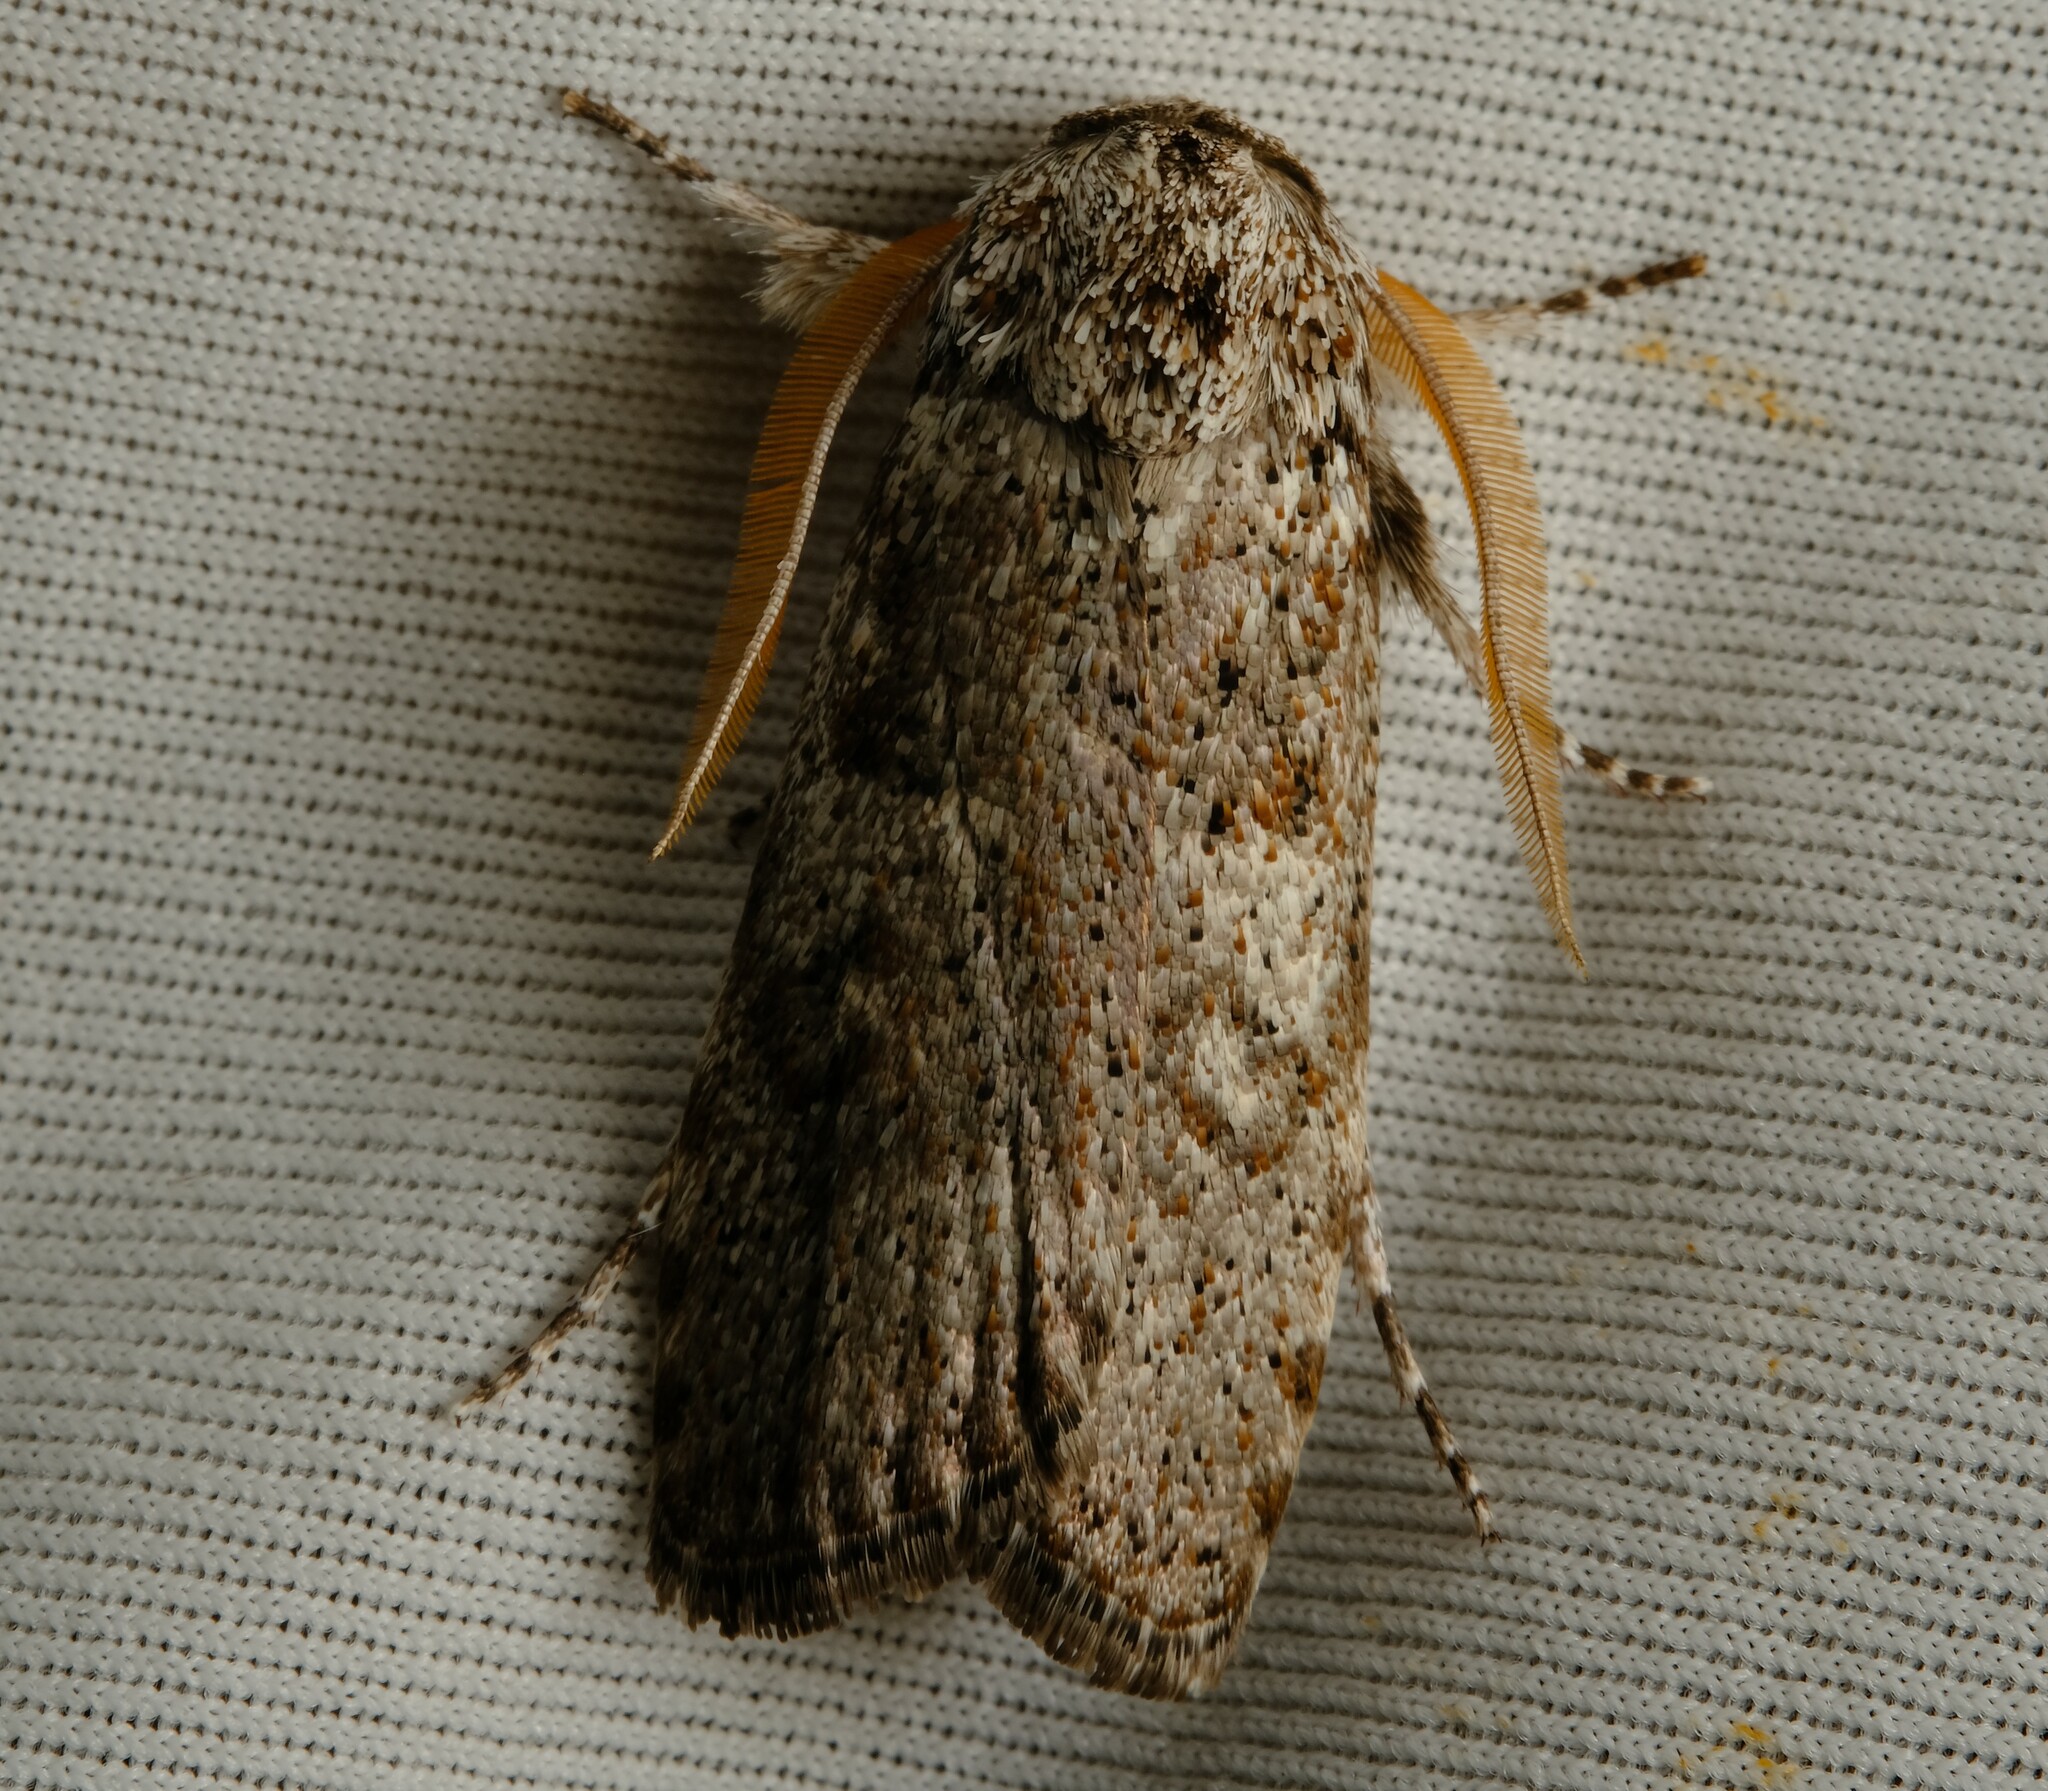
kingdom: Animalia
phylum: Arthropoda
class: Insecta
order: Lepidoptera
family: Xyloryctidae
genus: Cryptophasa
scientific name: Cryptophasa irrorata
